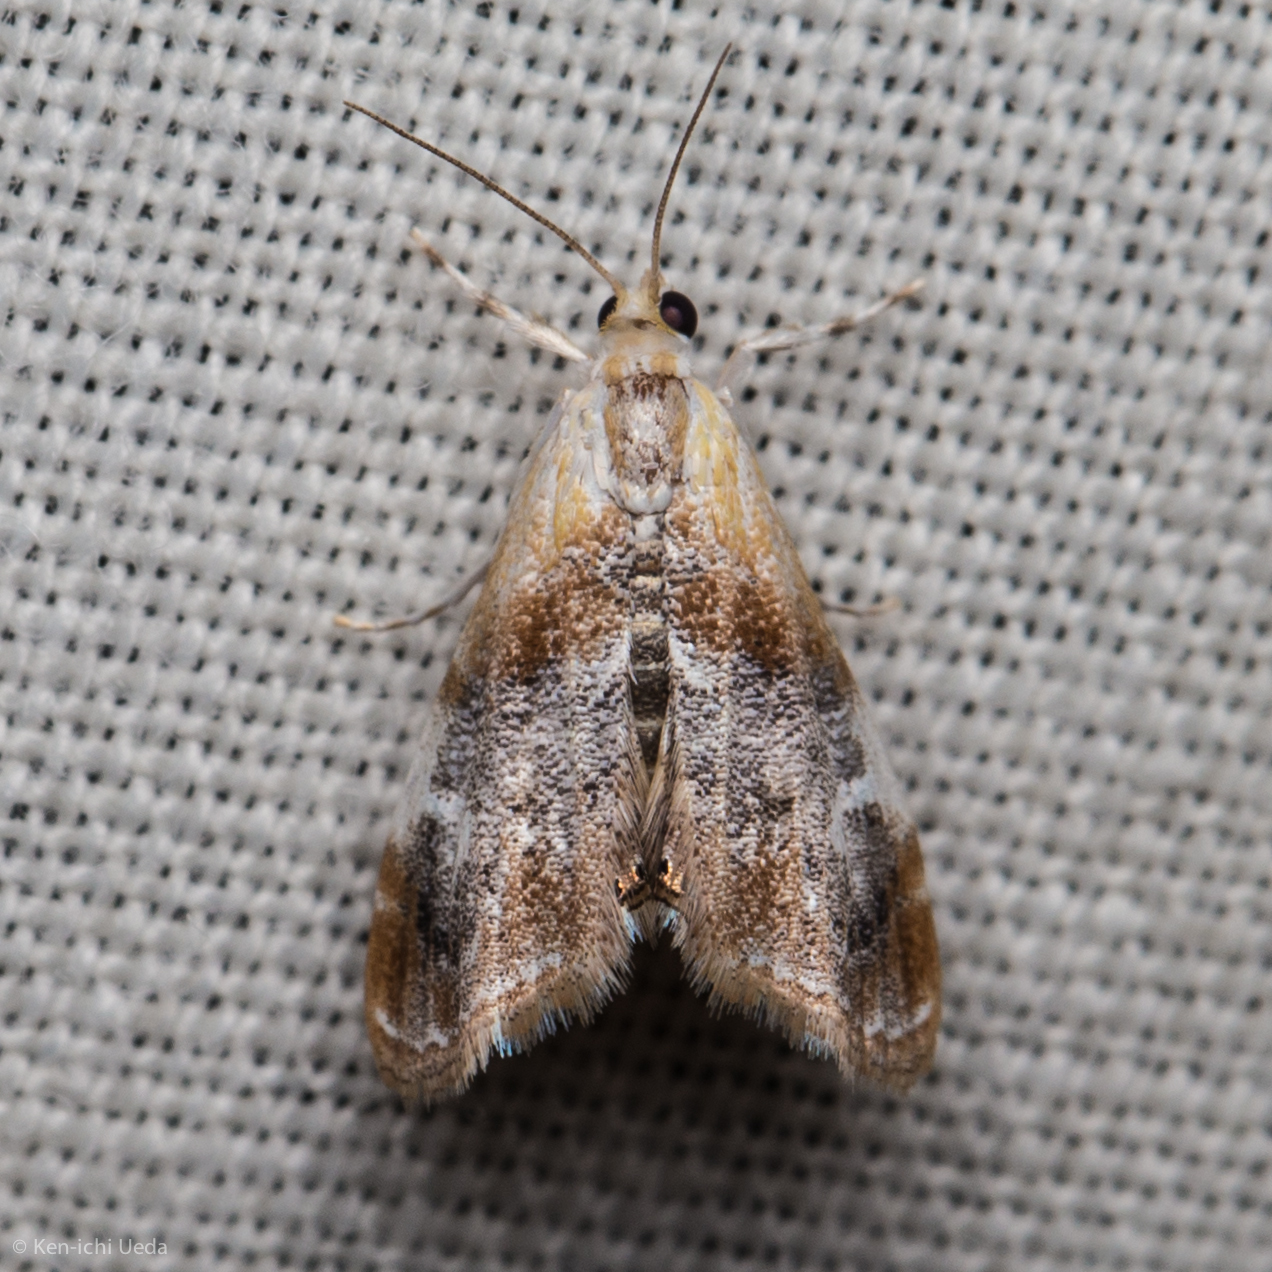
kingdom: Animalia
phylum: Arthropoda
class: Insecta
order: Lepidoptera
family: Crambidae
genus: Dicymolomia
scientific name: Dicymolomia julianalis
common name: Julia's dicymolomia moth
